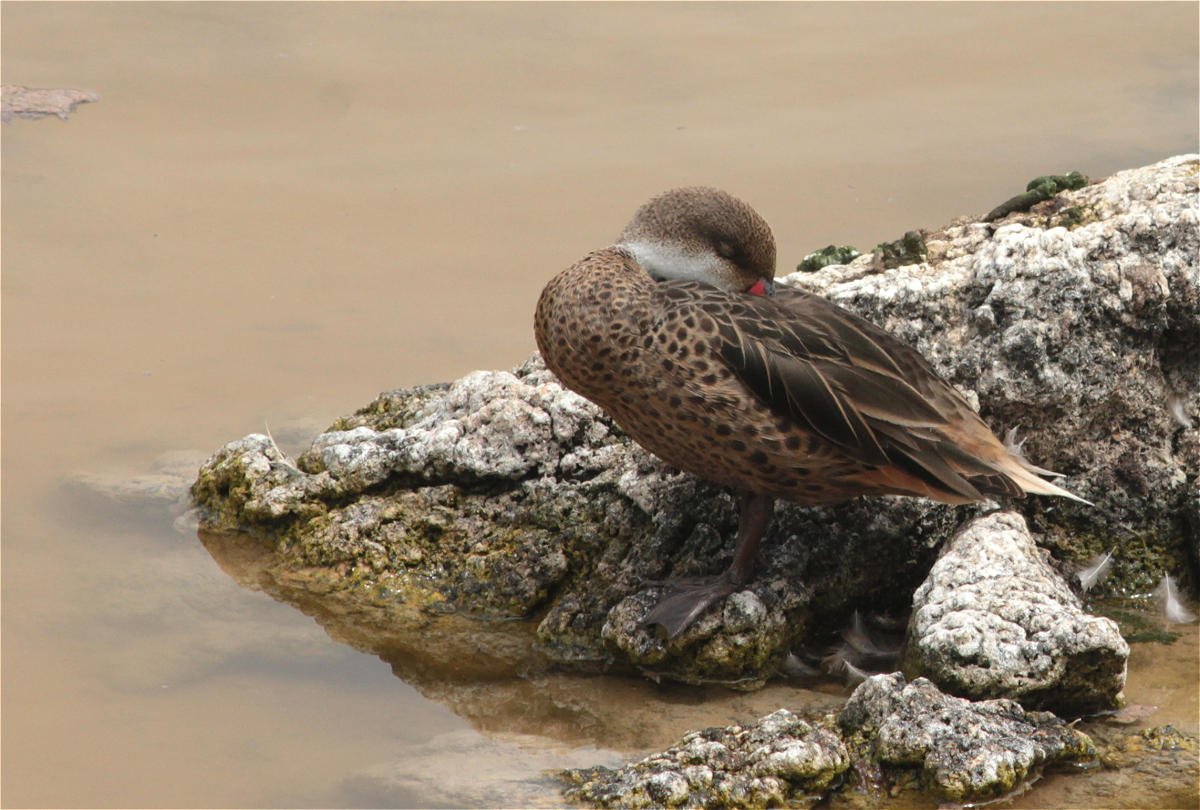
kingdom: Animalia
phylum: Chordata
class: Aves
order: Anseriformes
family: Anatidae
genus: Anas
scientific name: Anas bahamensis
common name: White-cheeked pintail
